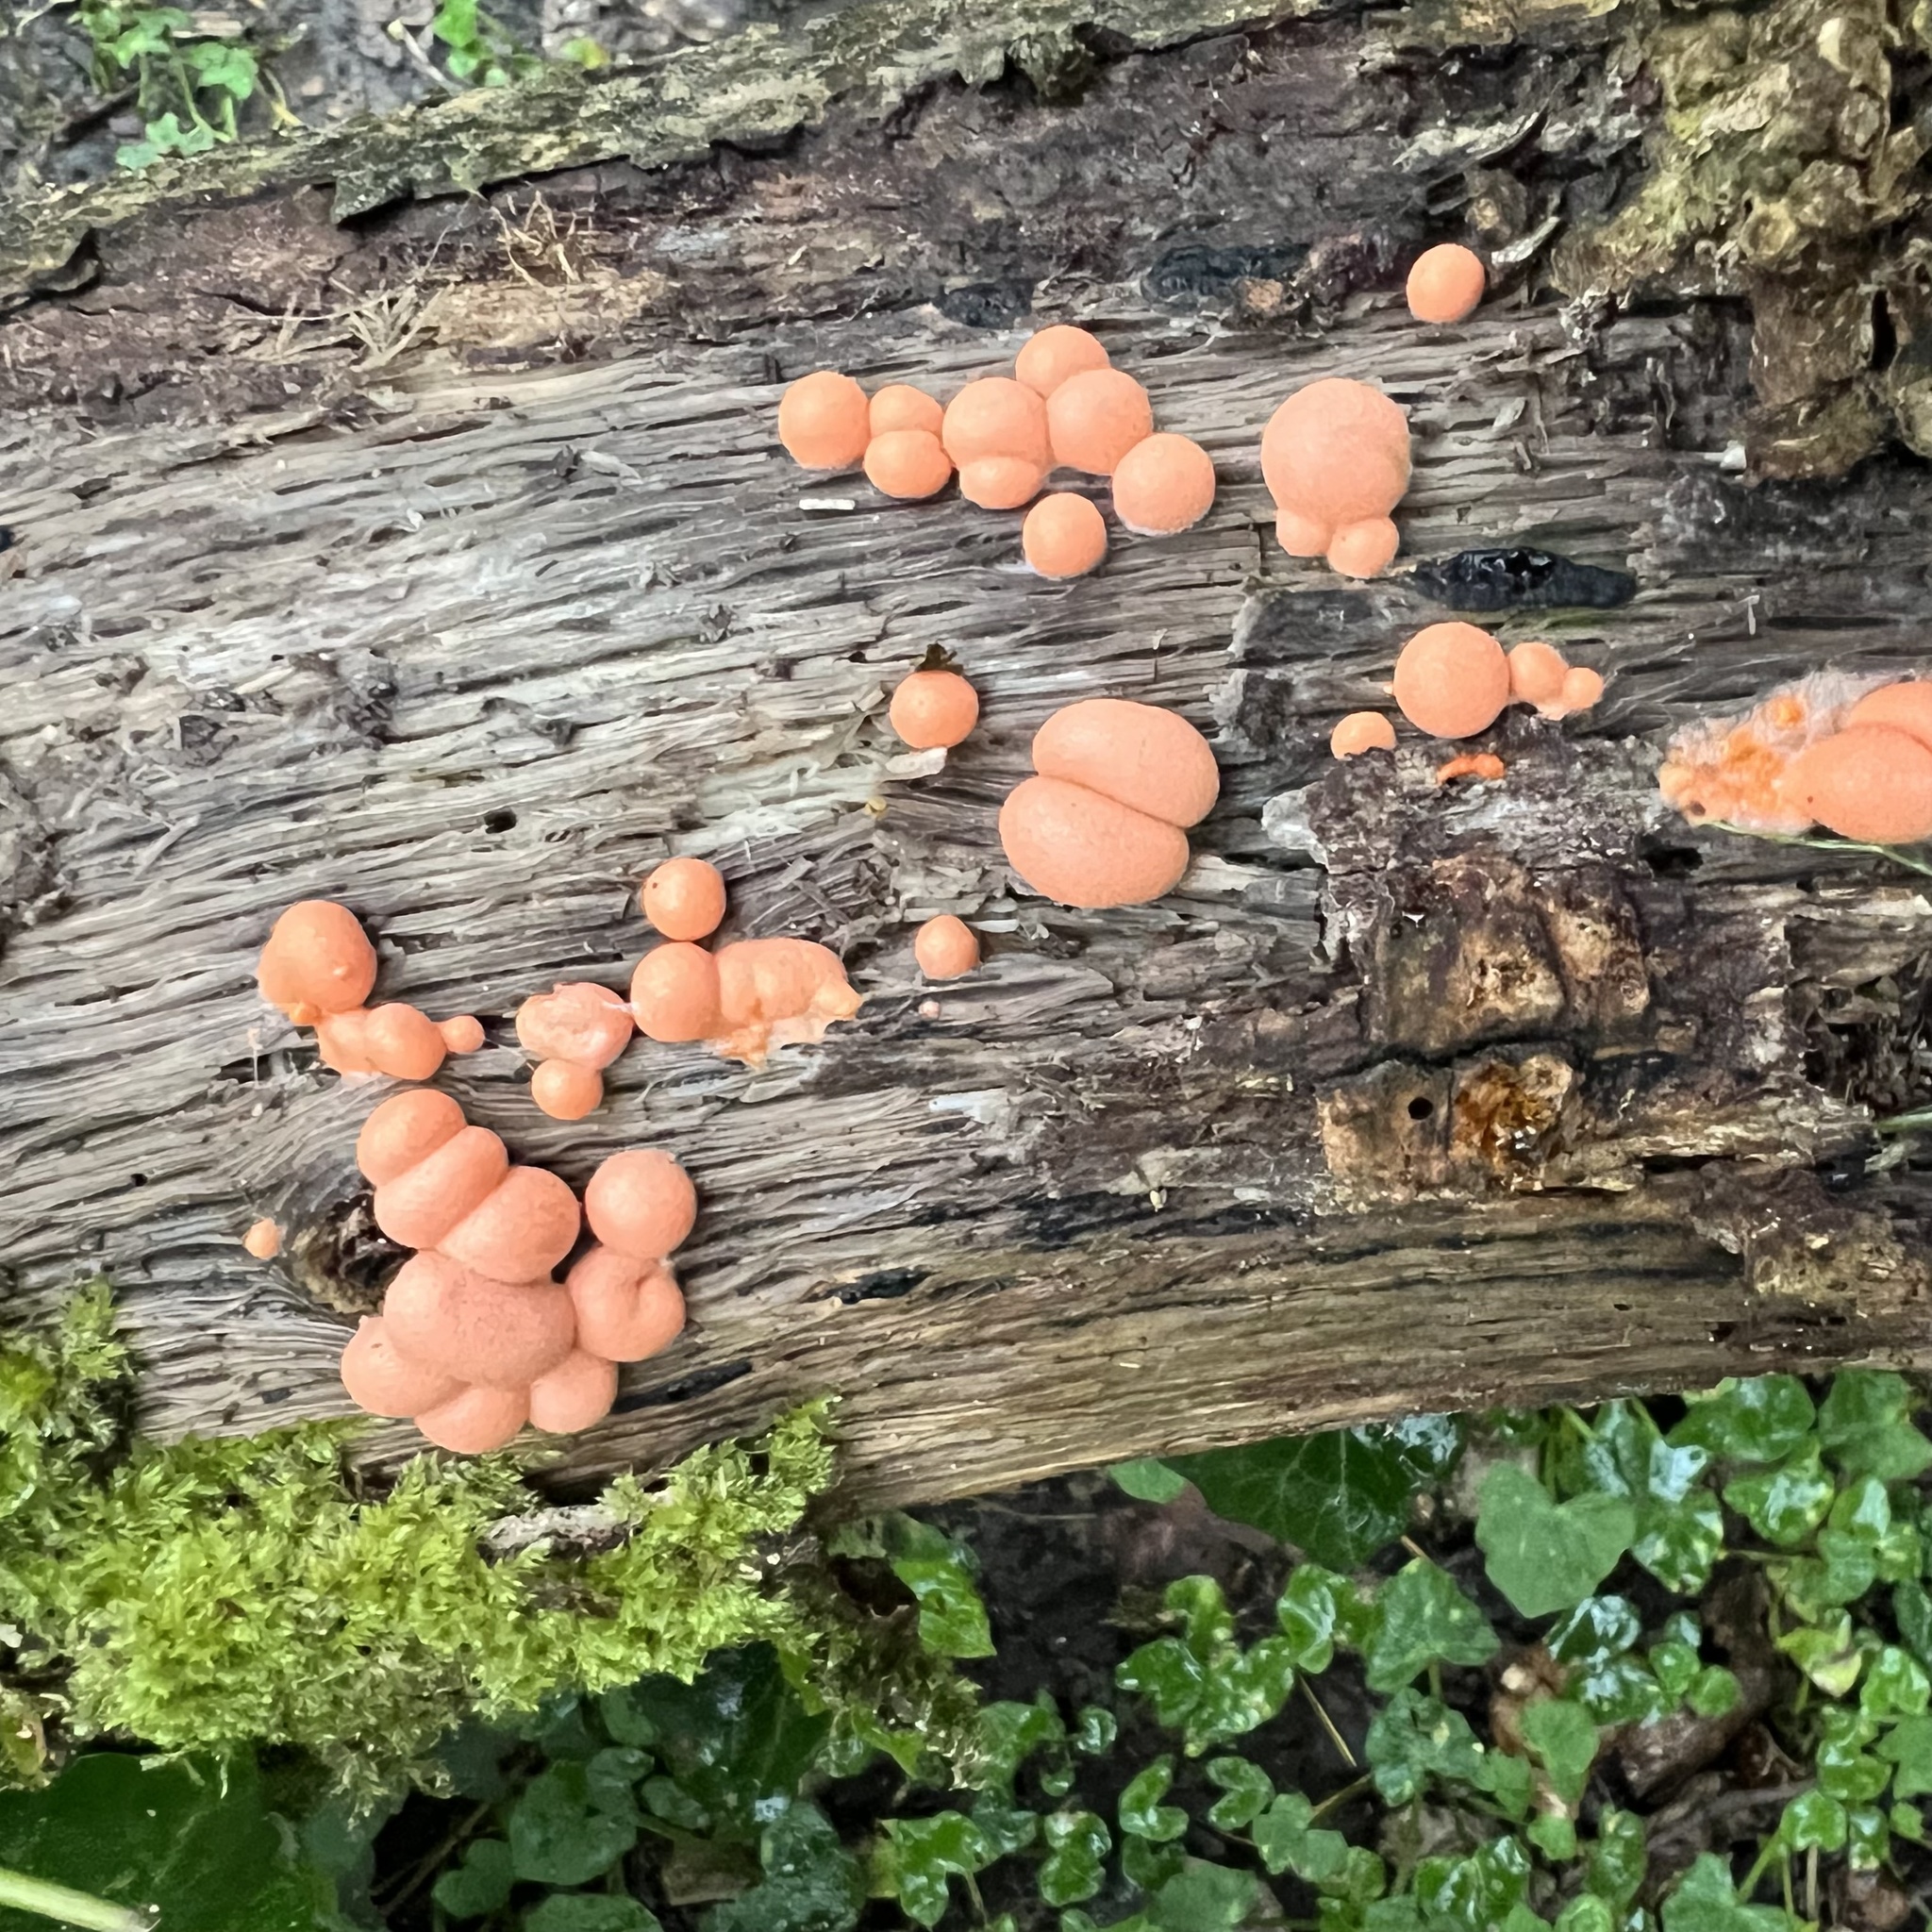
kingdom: Protozoa
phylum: Mycetozoa
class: Myxomycetes
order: Cribrariales
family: Tubiferaceae
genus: Lycogala
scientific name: Lycogala epidendrum
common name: Wolf's milk
